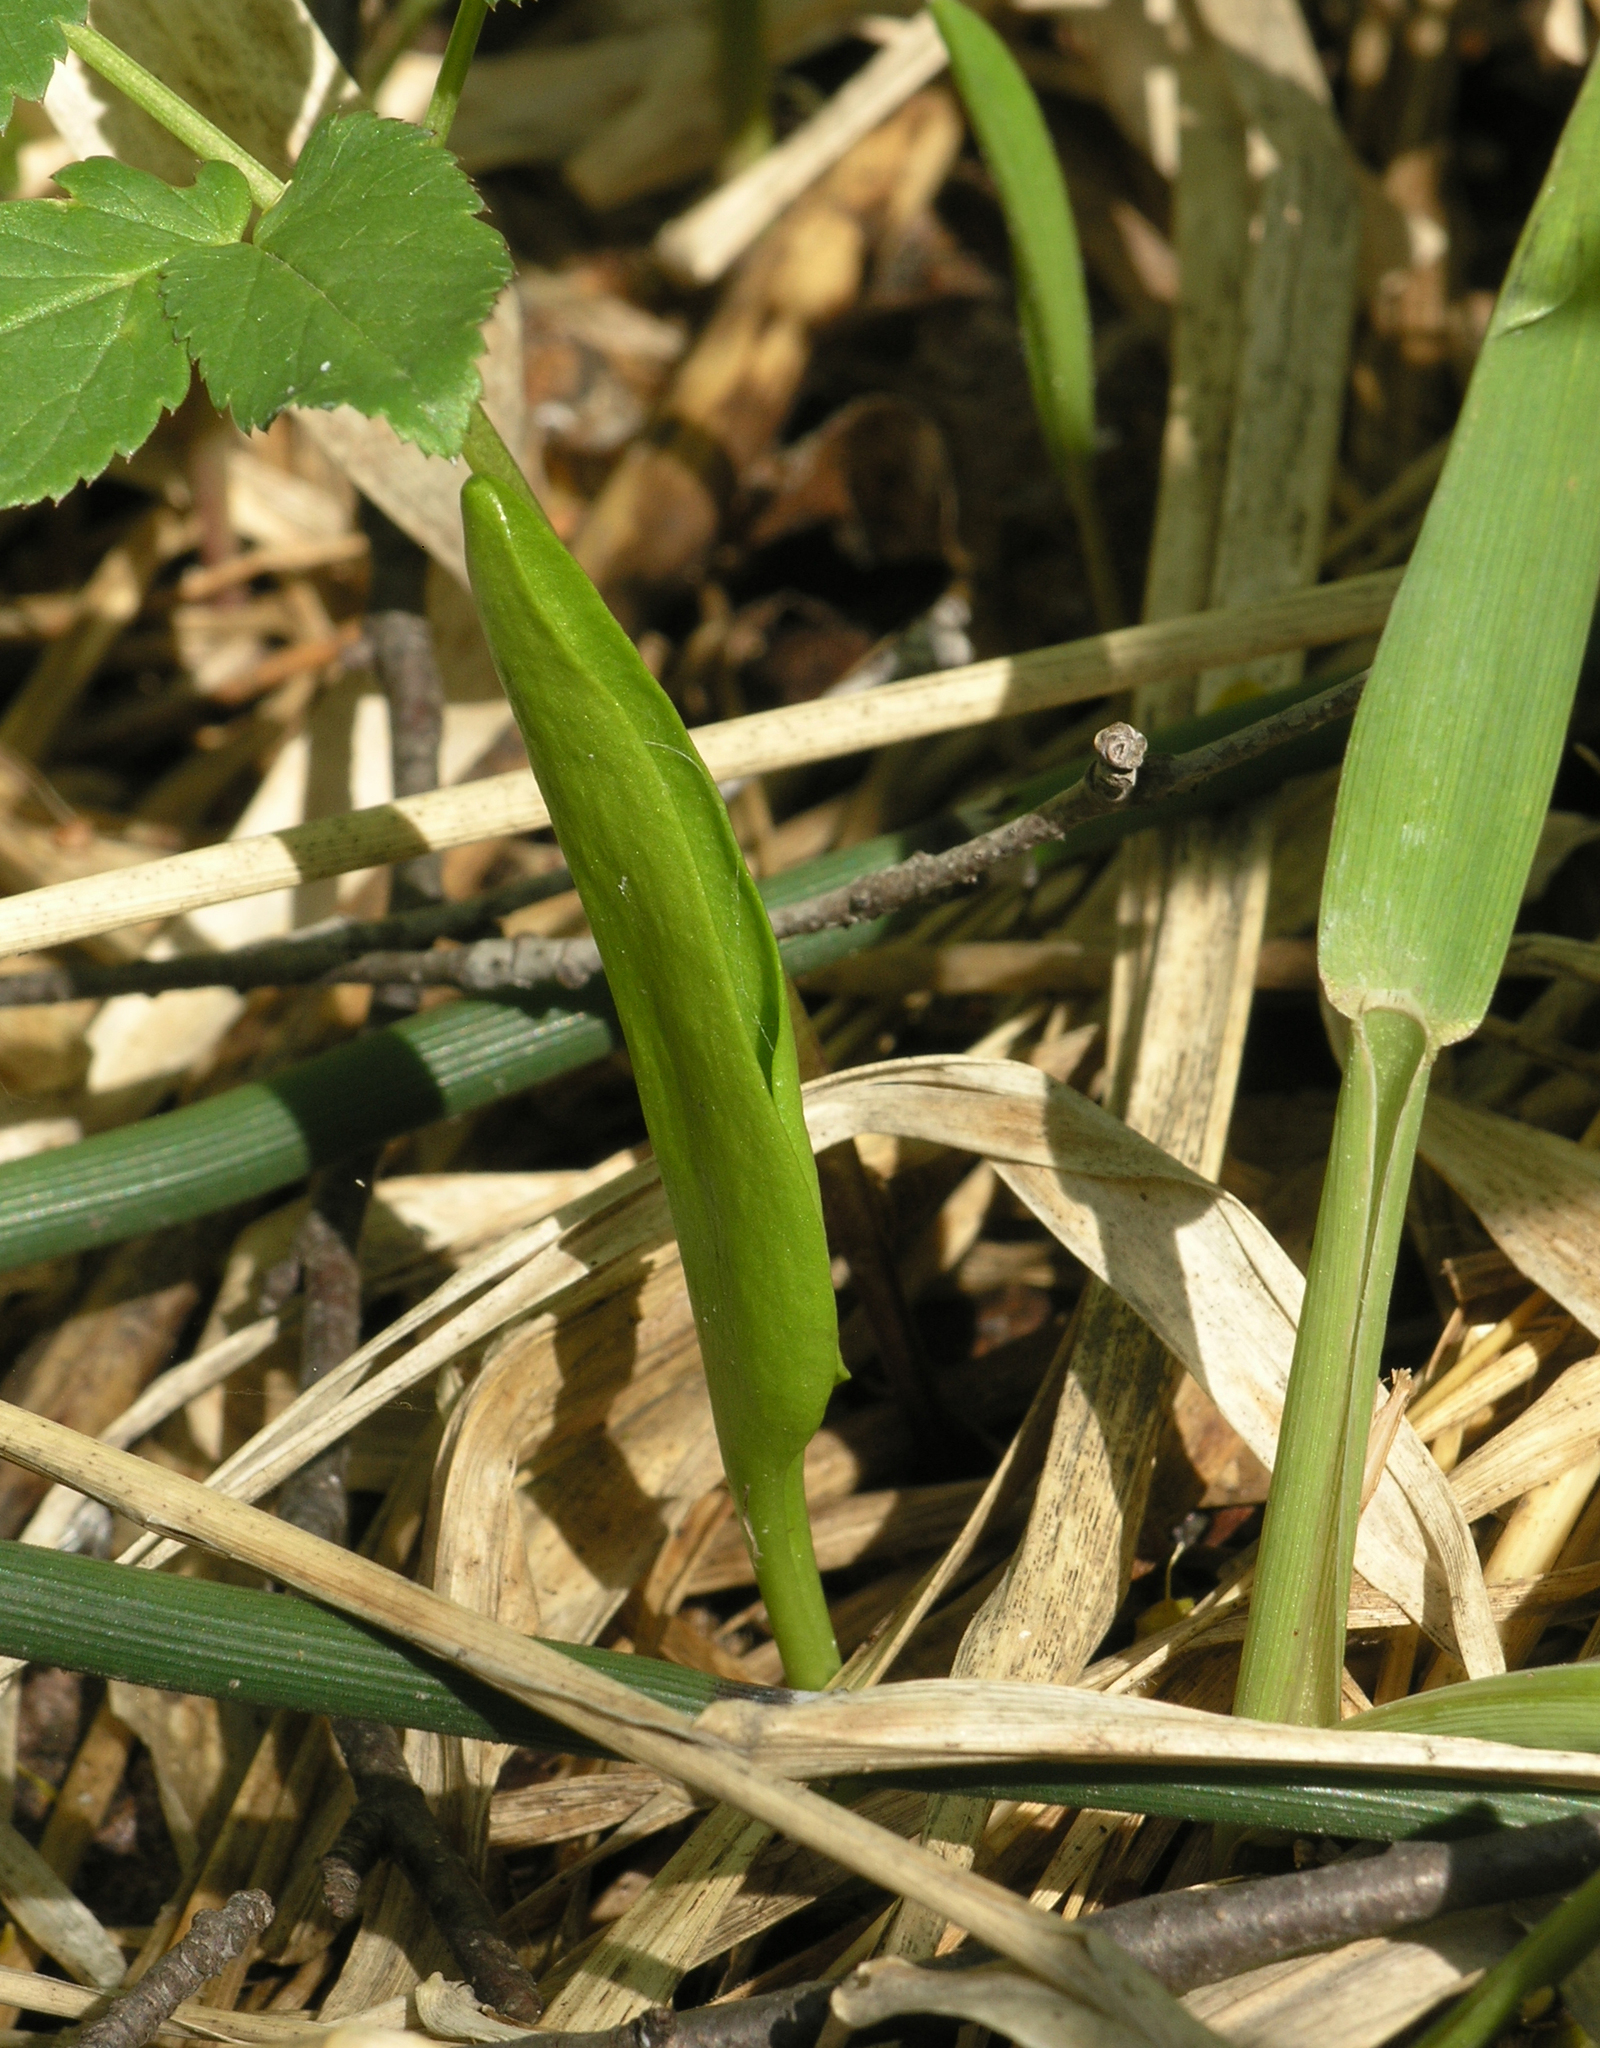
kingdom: Plantae
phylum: Tracheophyta
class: Polypodiopsida
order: Ophioglossales
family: Ophioglossaceae
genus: Ophioglossum
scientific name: Ophioglossum vulgatum
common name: Adder's-tongue
